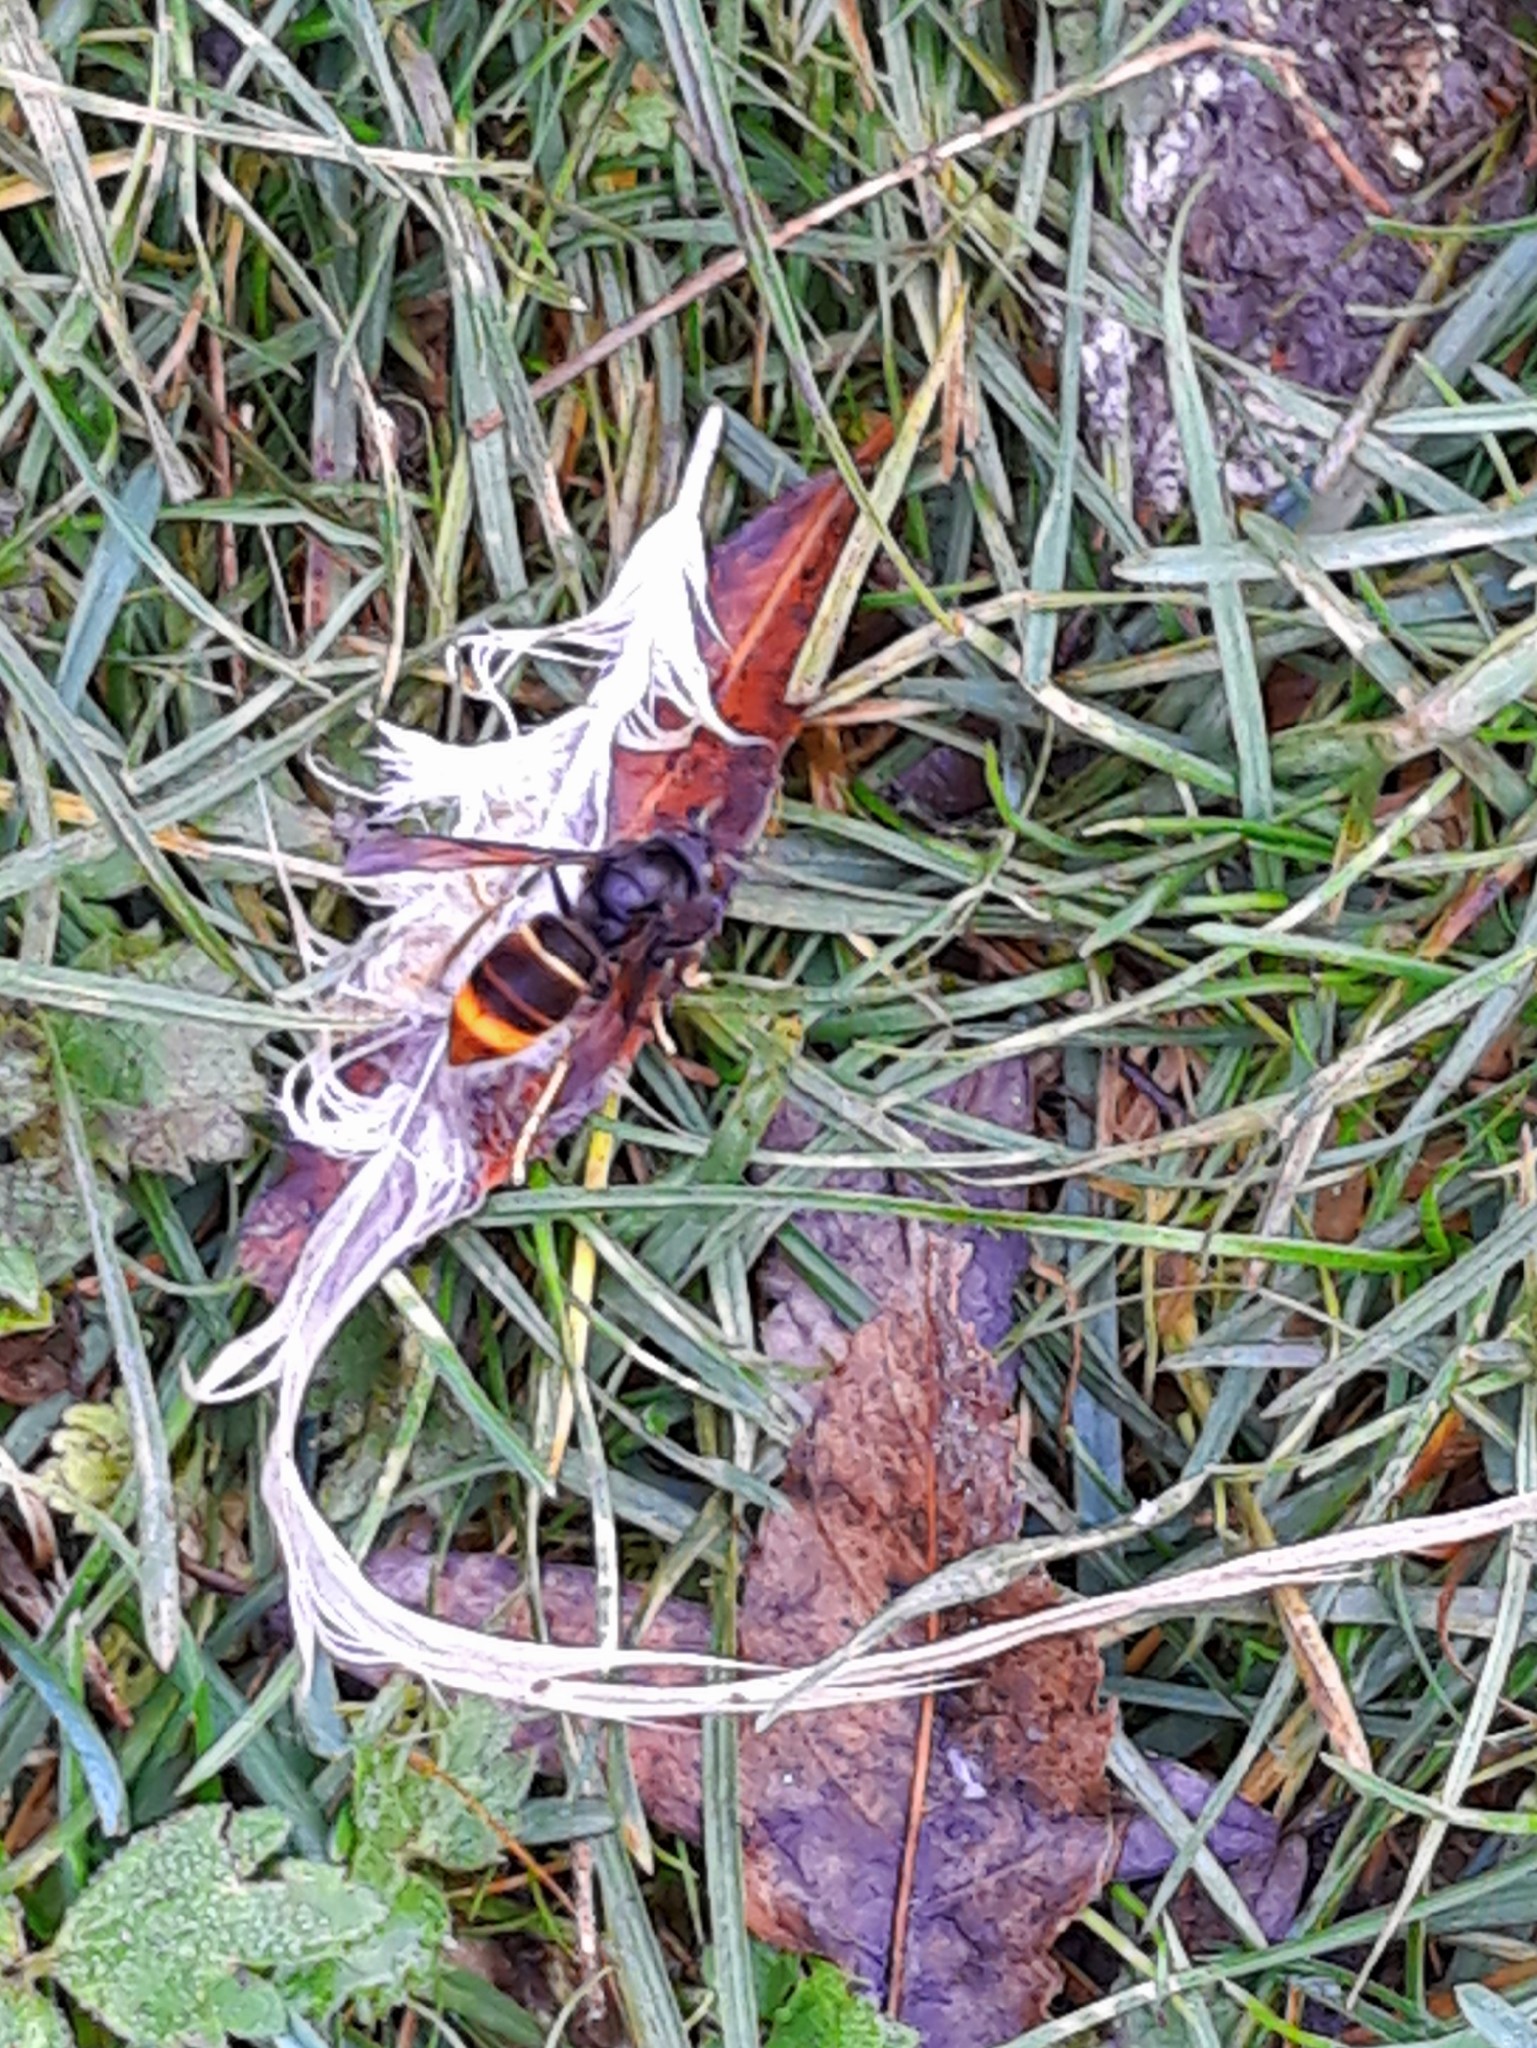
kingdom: Animalia
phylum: Arthropoda
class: Insecta
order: Hymenoptera
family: Vespidae
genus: Vespa
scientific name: Vespa velutina
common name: Asian hornet
